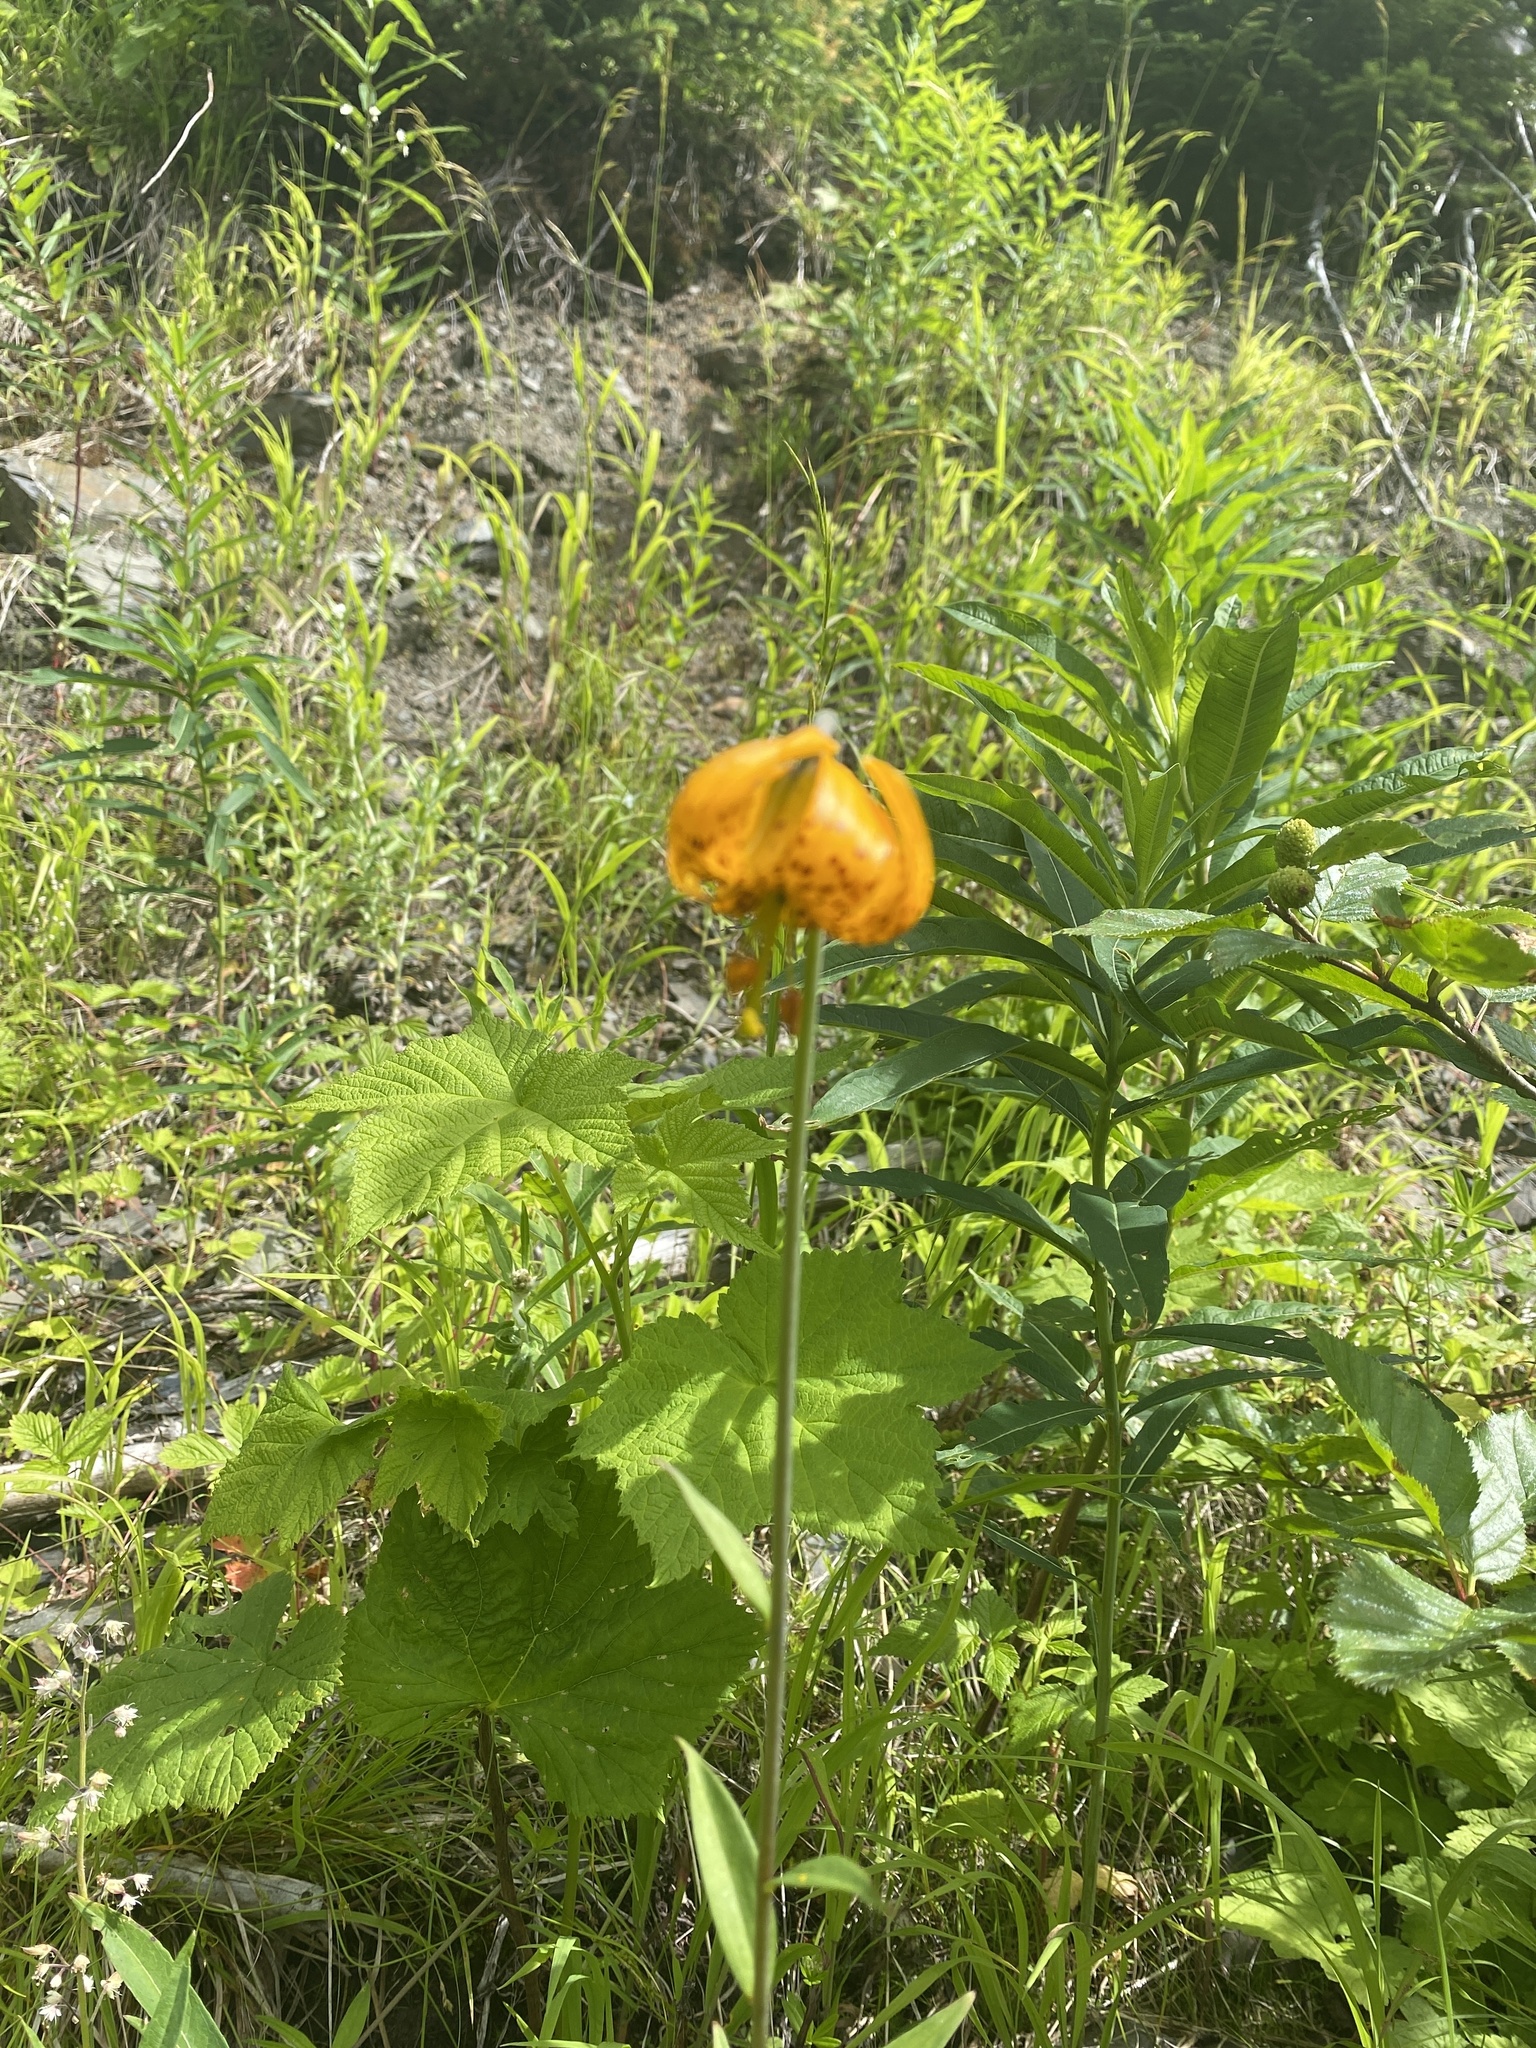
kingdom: Plantae
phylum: Tracheophyta
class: Liliopsida
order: Liliales
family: Liliaceae
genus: Lilium
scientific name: Lilium columbianum
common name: Columbia lily
